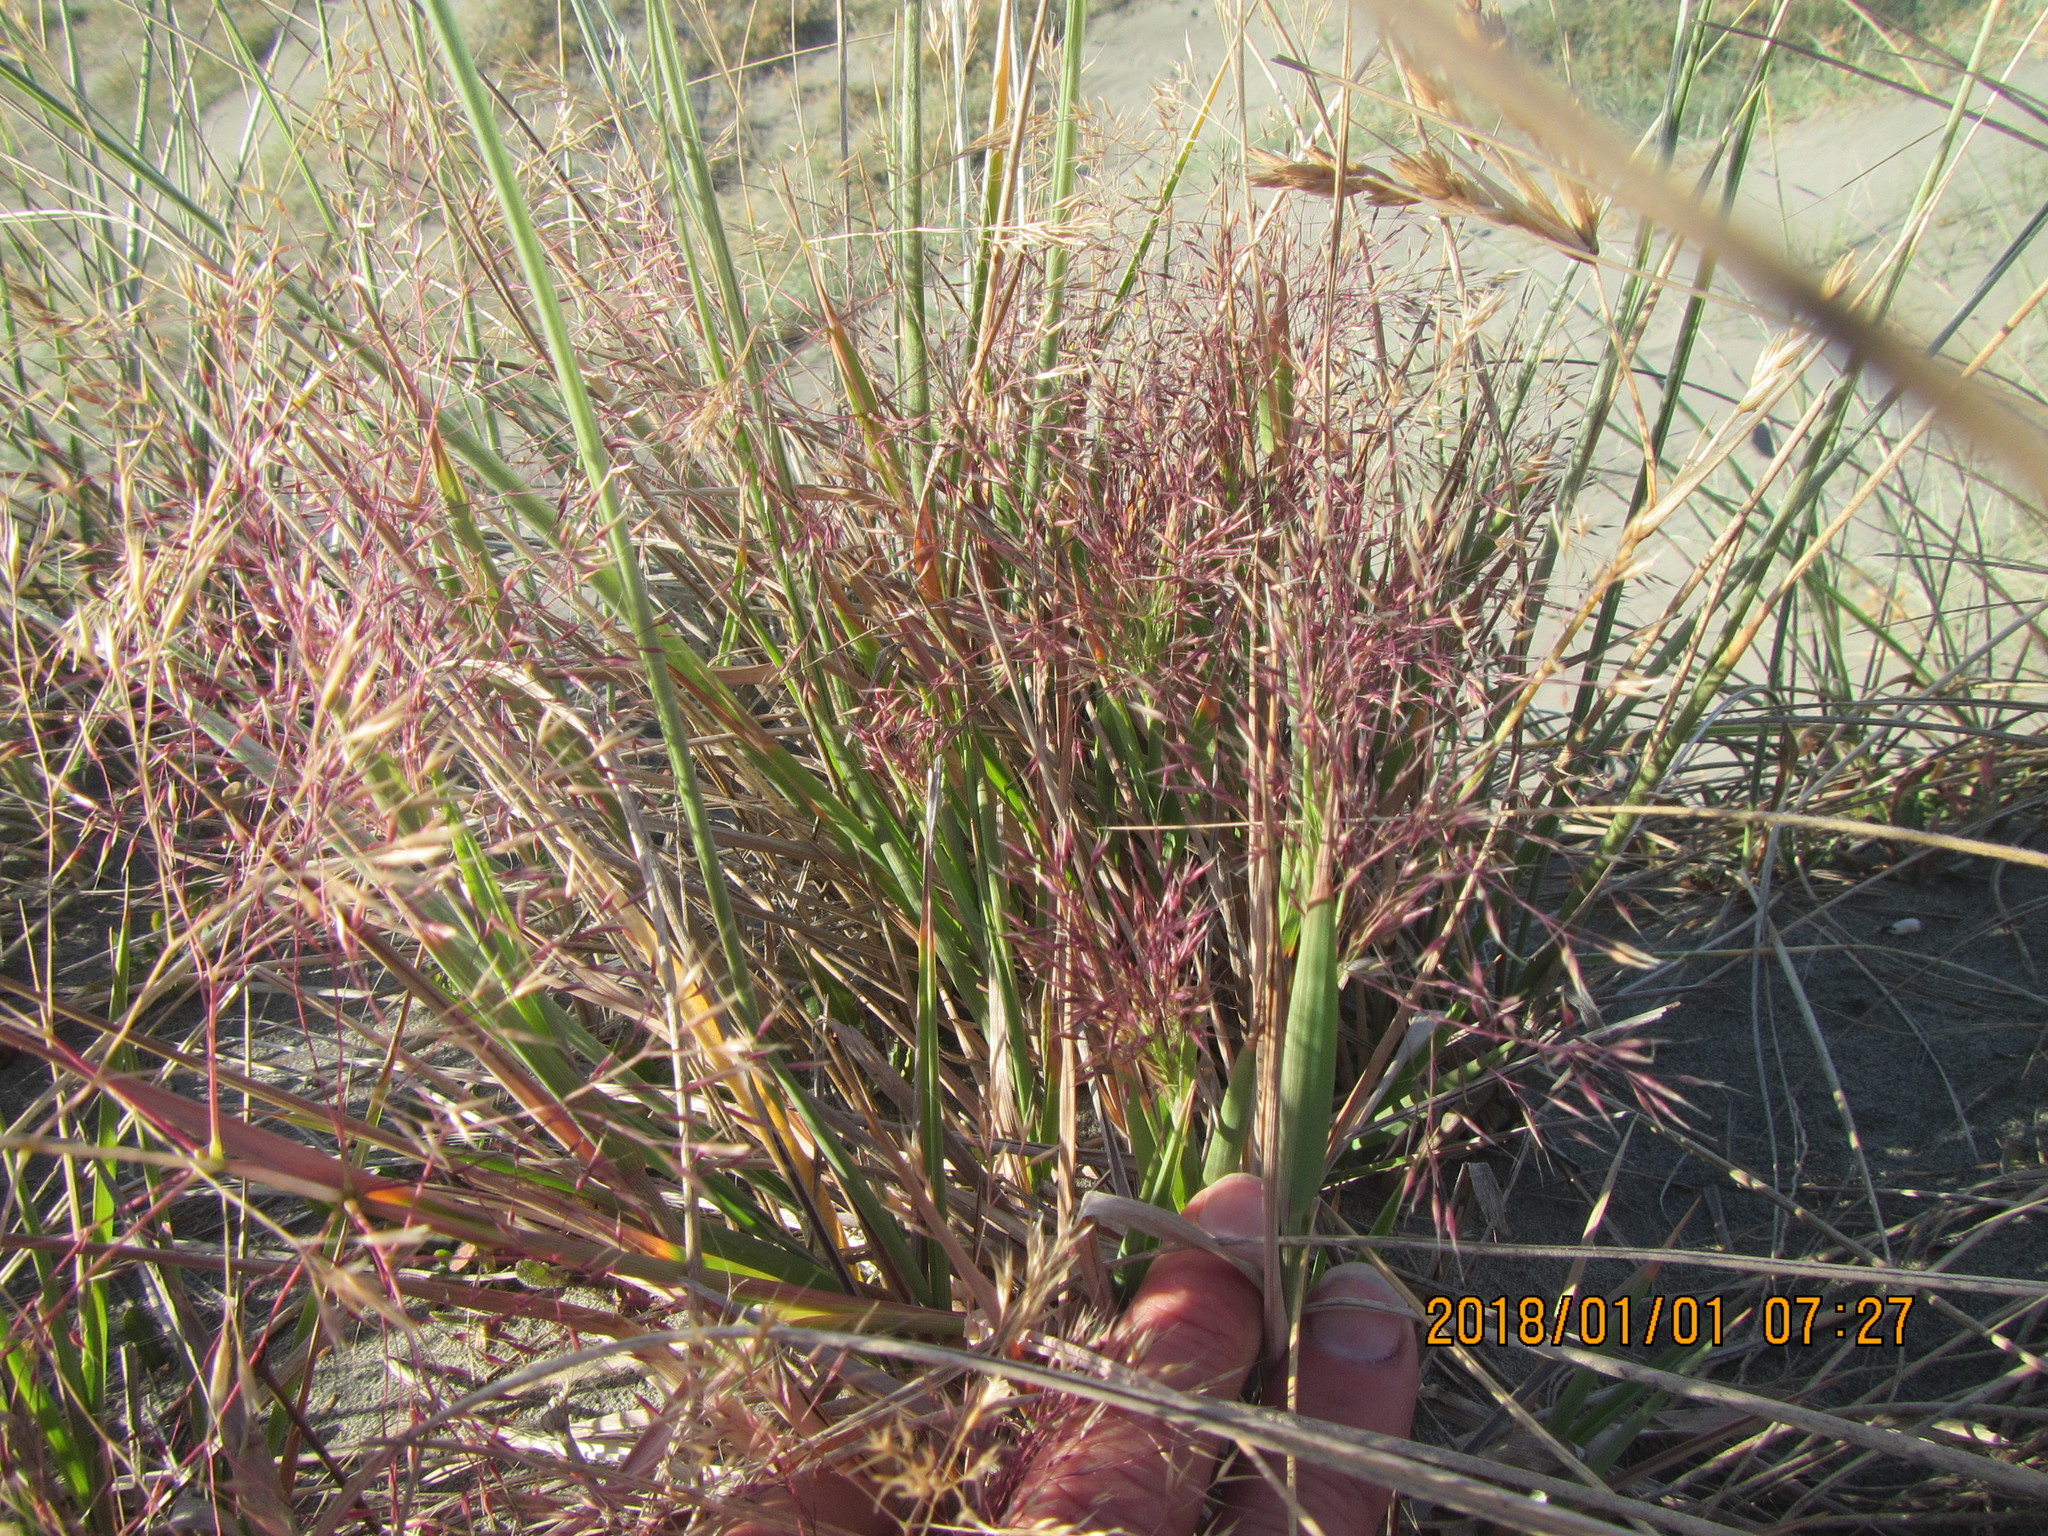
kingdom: Plantae
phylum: Tracheophyta
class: Liliopsida
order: Poales
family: Poaceae
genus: Lachnagrostis
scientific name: Lachnagrostis billardierei
